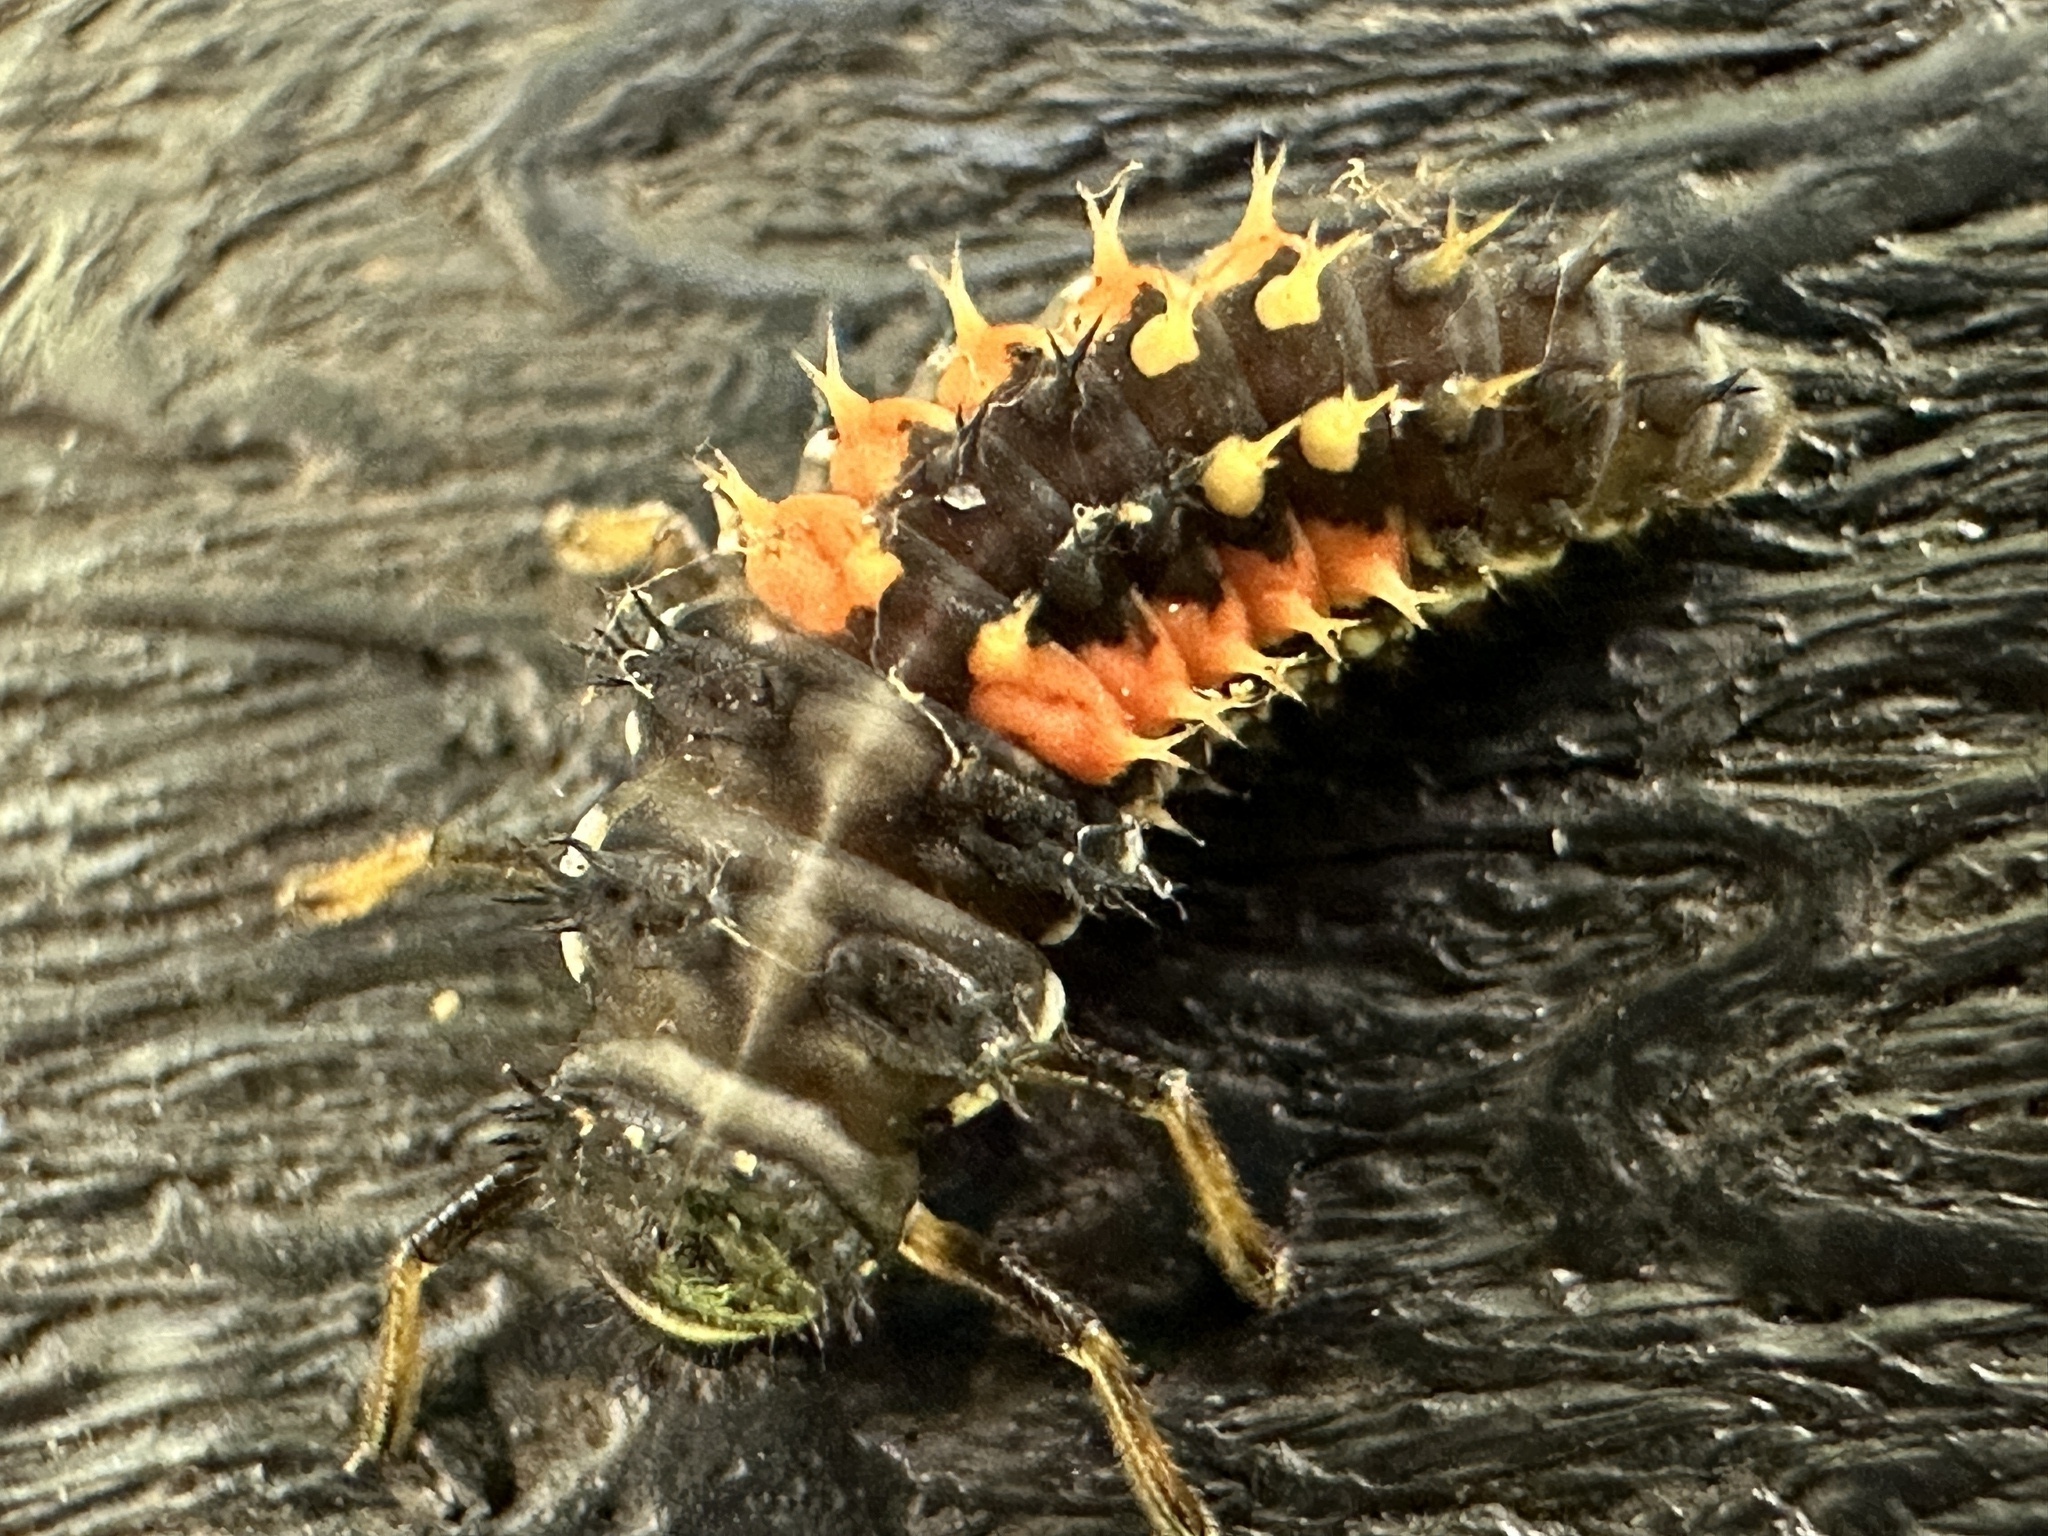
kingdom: Animalia
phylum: Arthropoda
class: Insecta
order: Coleoptera
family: Coccinellidae
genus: Harmonia
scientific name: Harmonia axyridis
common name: Harlequin ladybird
